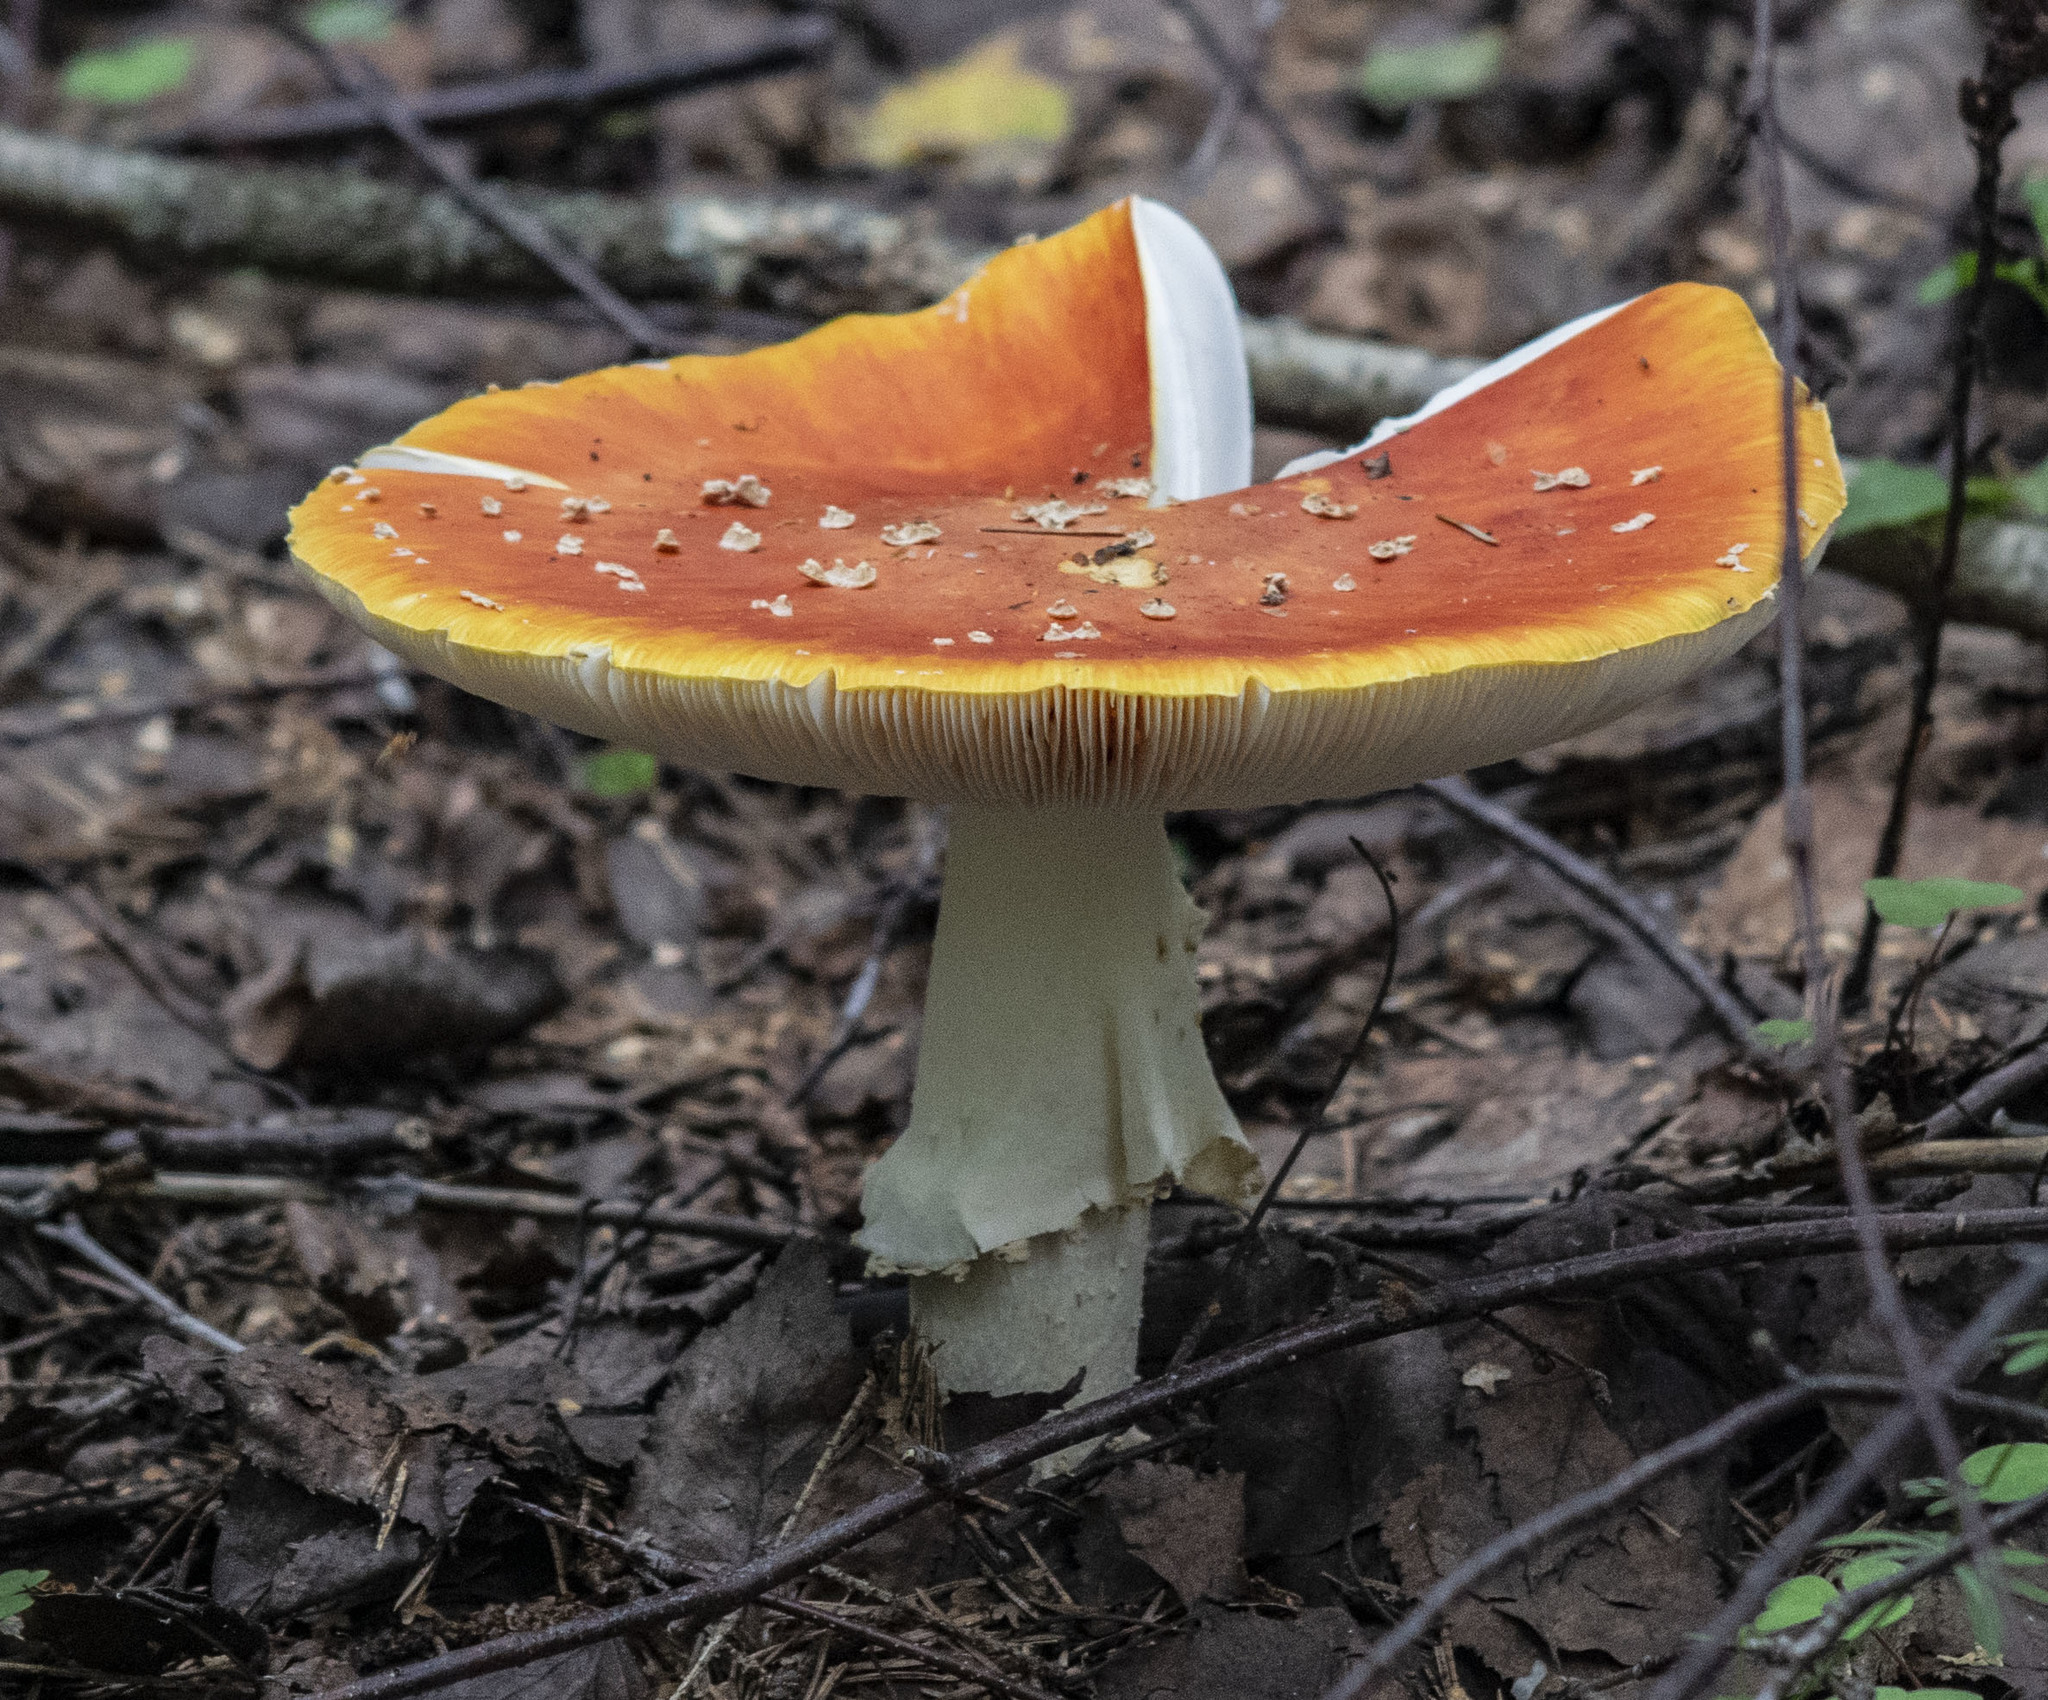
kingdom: Fungi
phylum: Basidiomycota
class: Agaricomycetes
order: Agaricales
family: Amanitaceae
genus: Amanita
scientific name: Amanita muscaria
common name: Fly agaric
